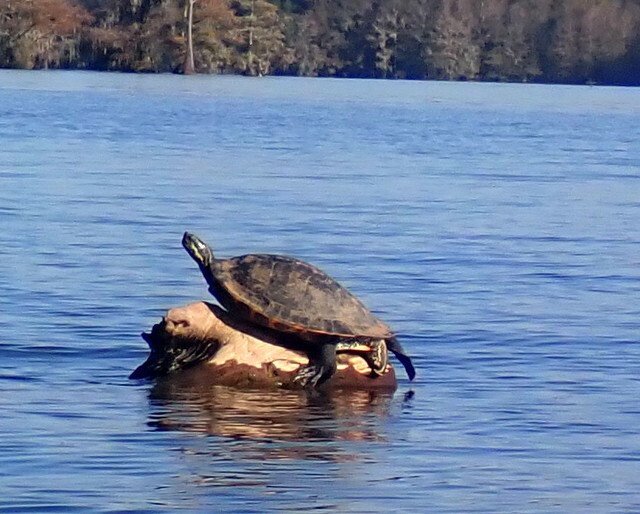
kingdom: Animalia
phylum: Chordata
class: Testudines
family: Emydidae
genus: Pseudemys
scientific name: Pseudemys concinna
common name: Eastern river cooter
